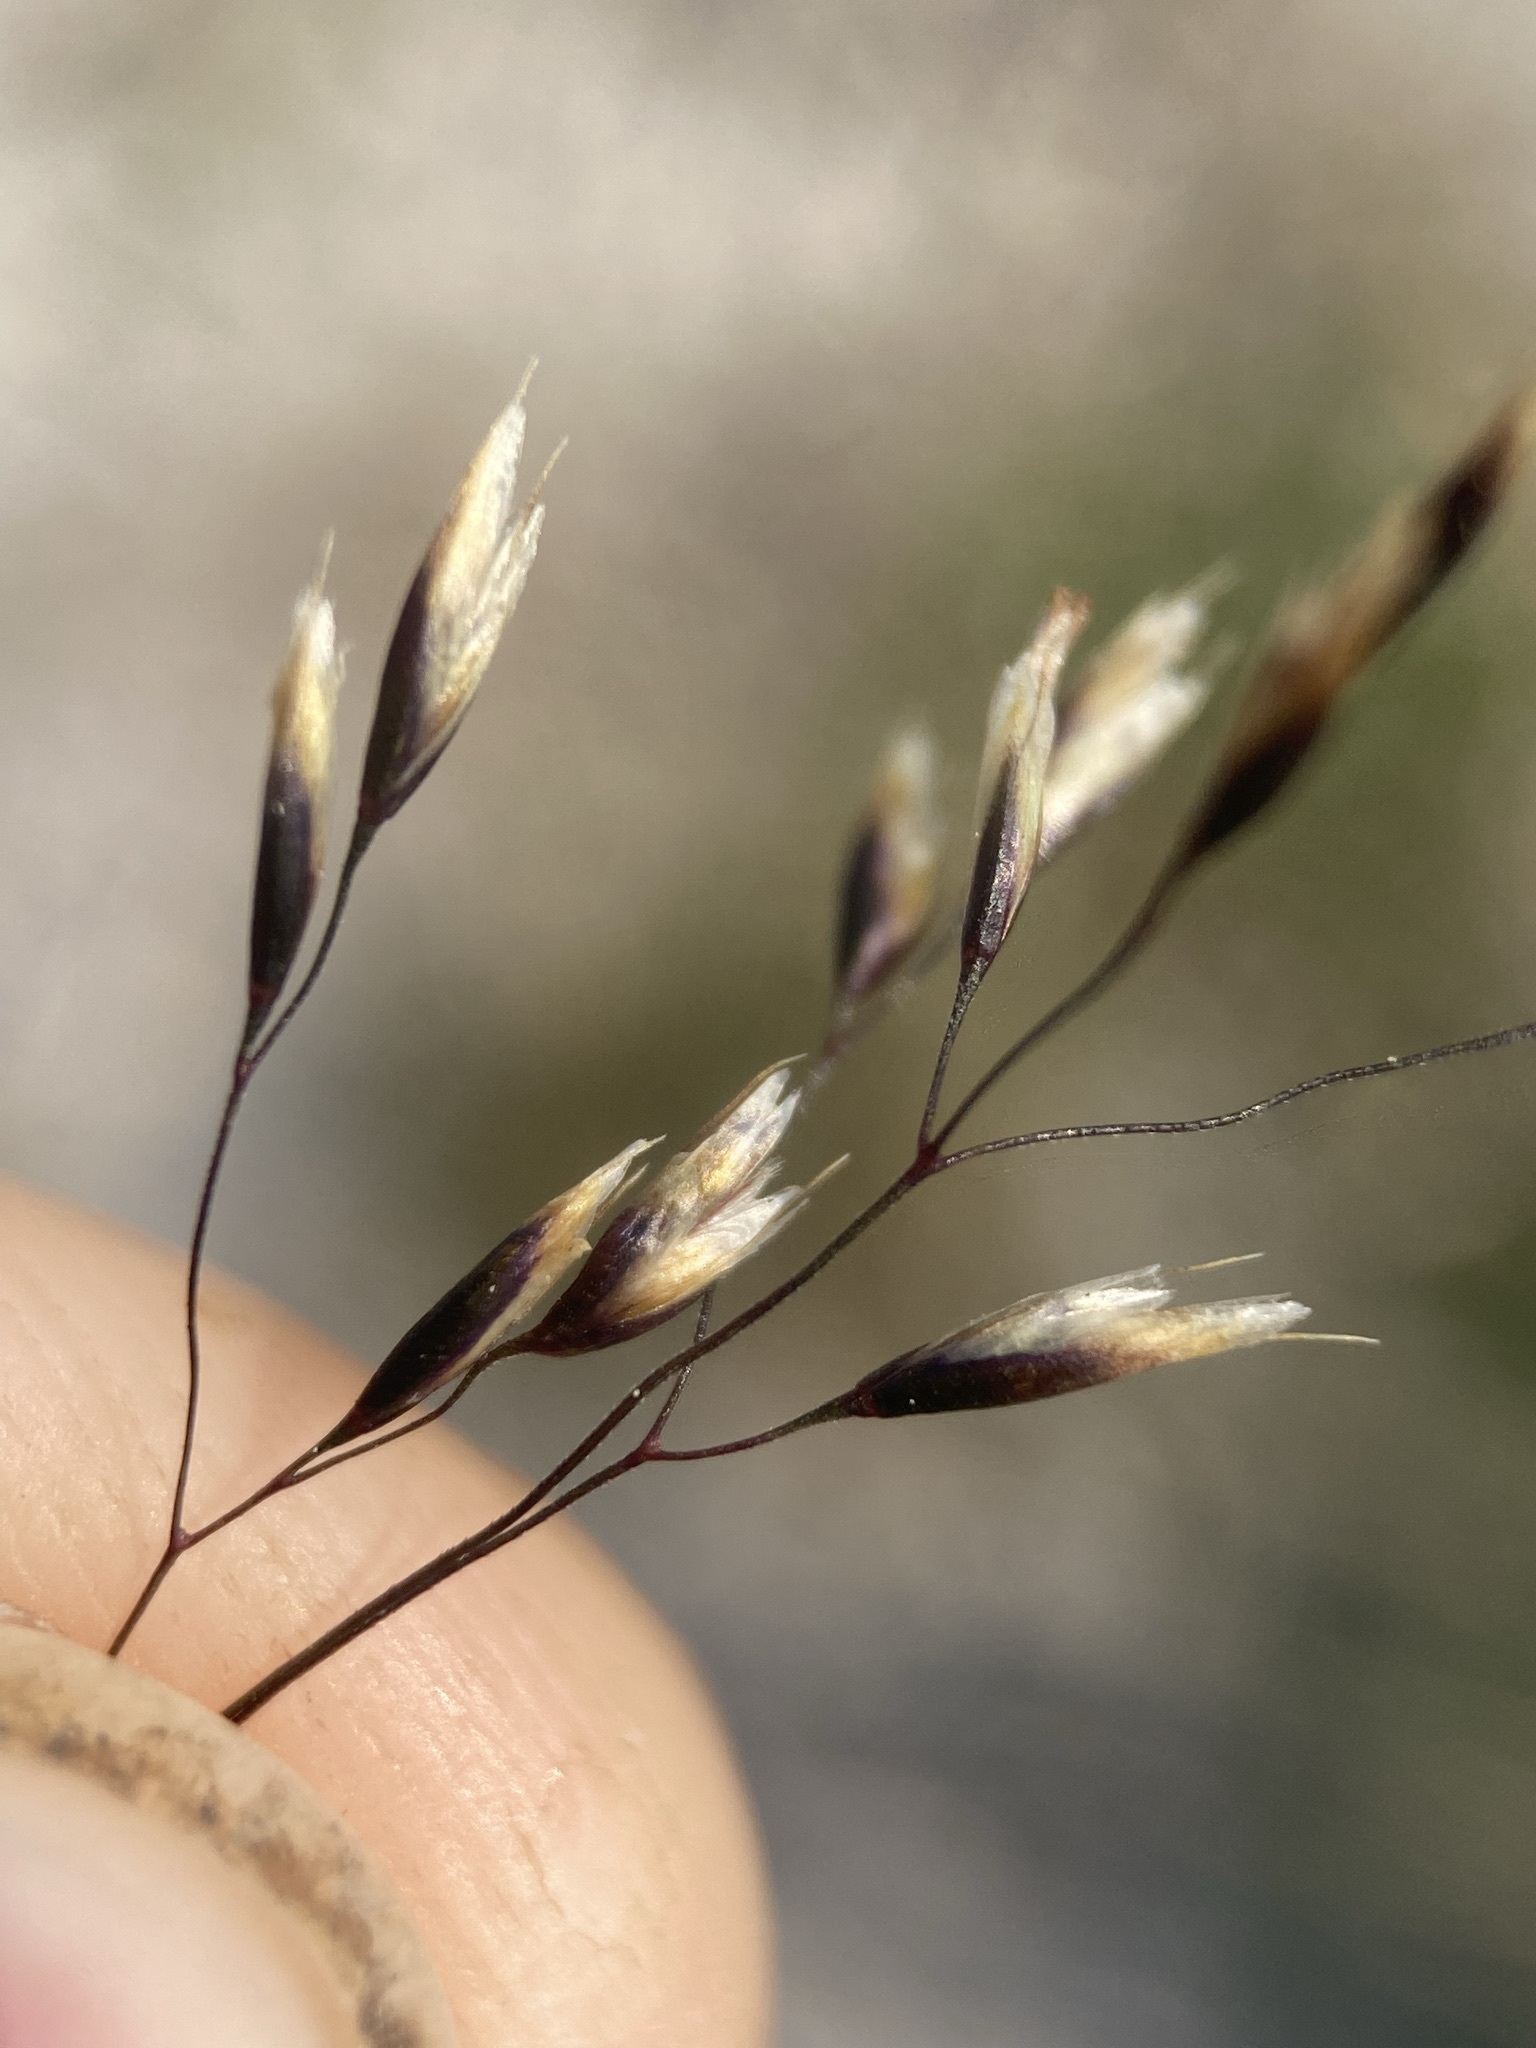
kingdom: Plantae
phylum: Tracheophyta
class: Liliopsida
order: Poales
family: Poaceae
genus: Deschampsia
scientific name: Deschampsia cespitosa
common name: Tufted hair-grass
